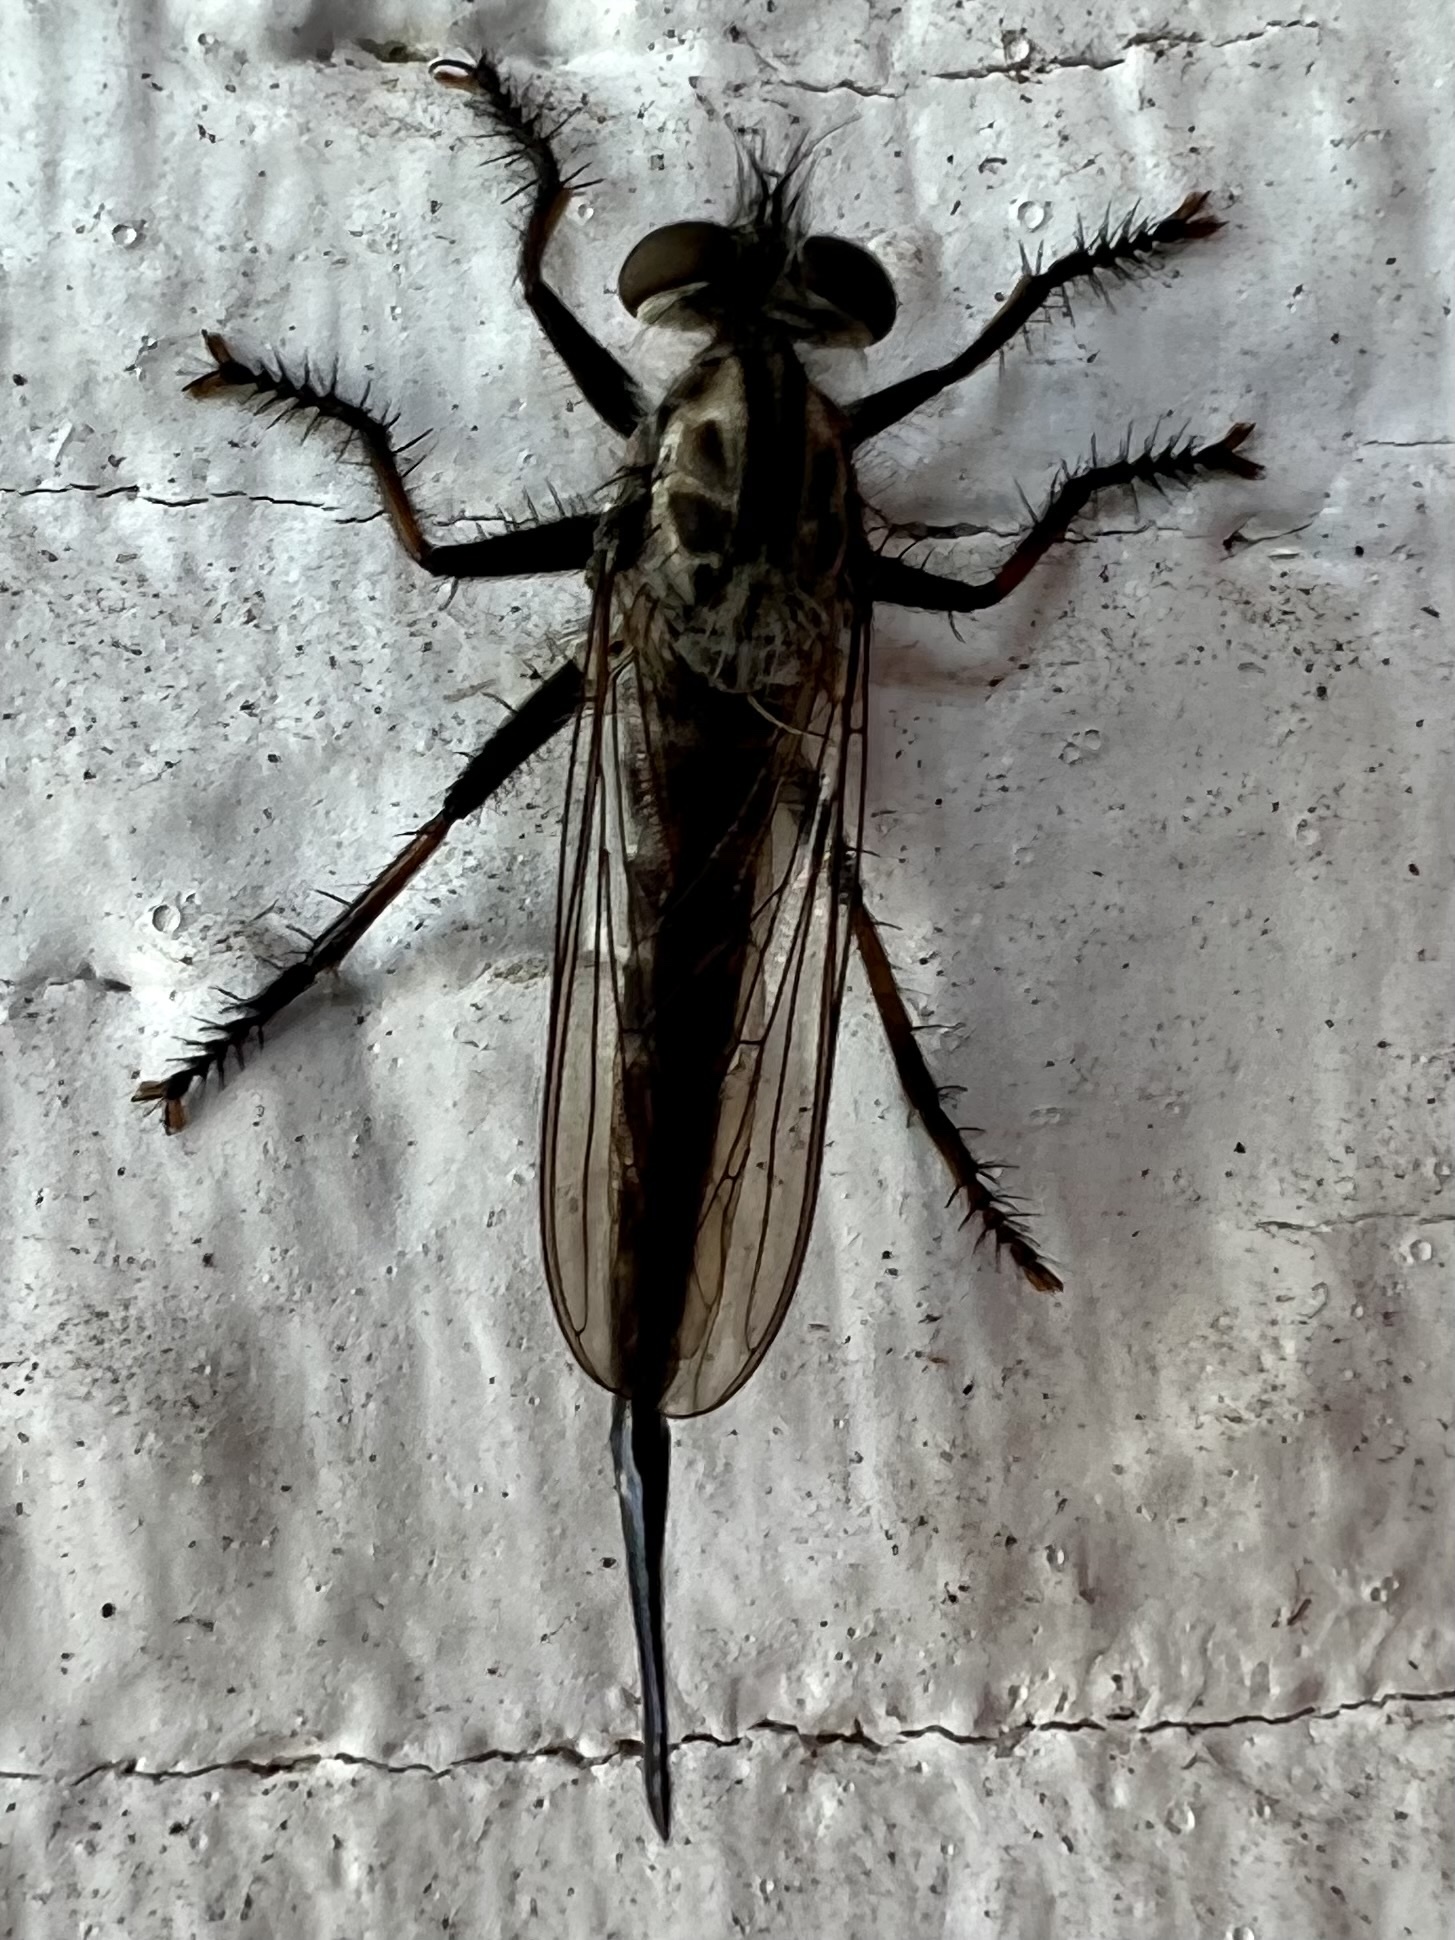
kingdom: Animalia
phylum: Arthropoda
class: Insecta
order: Diptera
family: Asilidae
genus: Efferia
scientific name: Efferia aestuans
